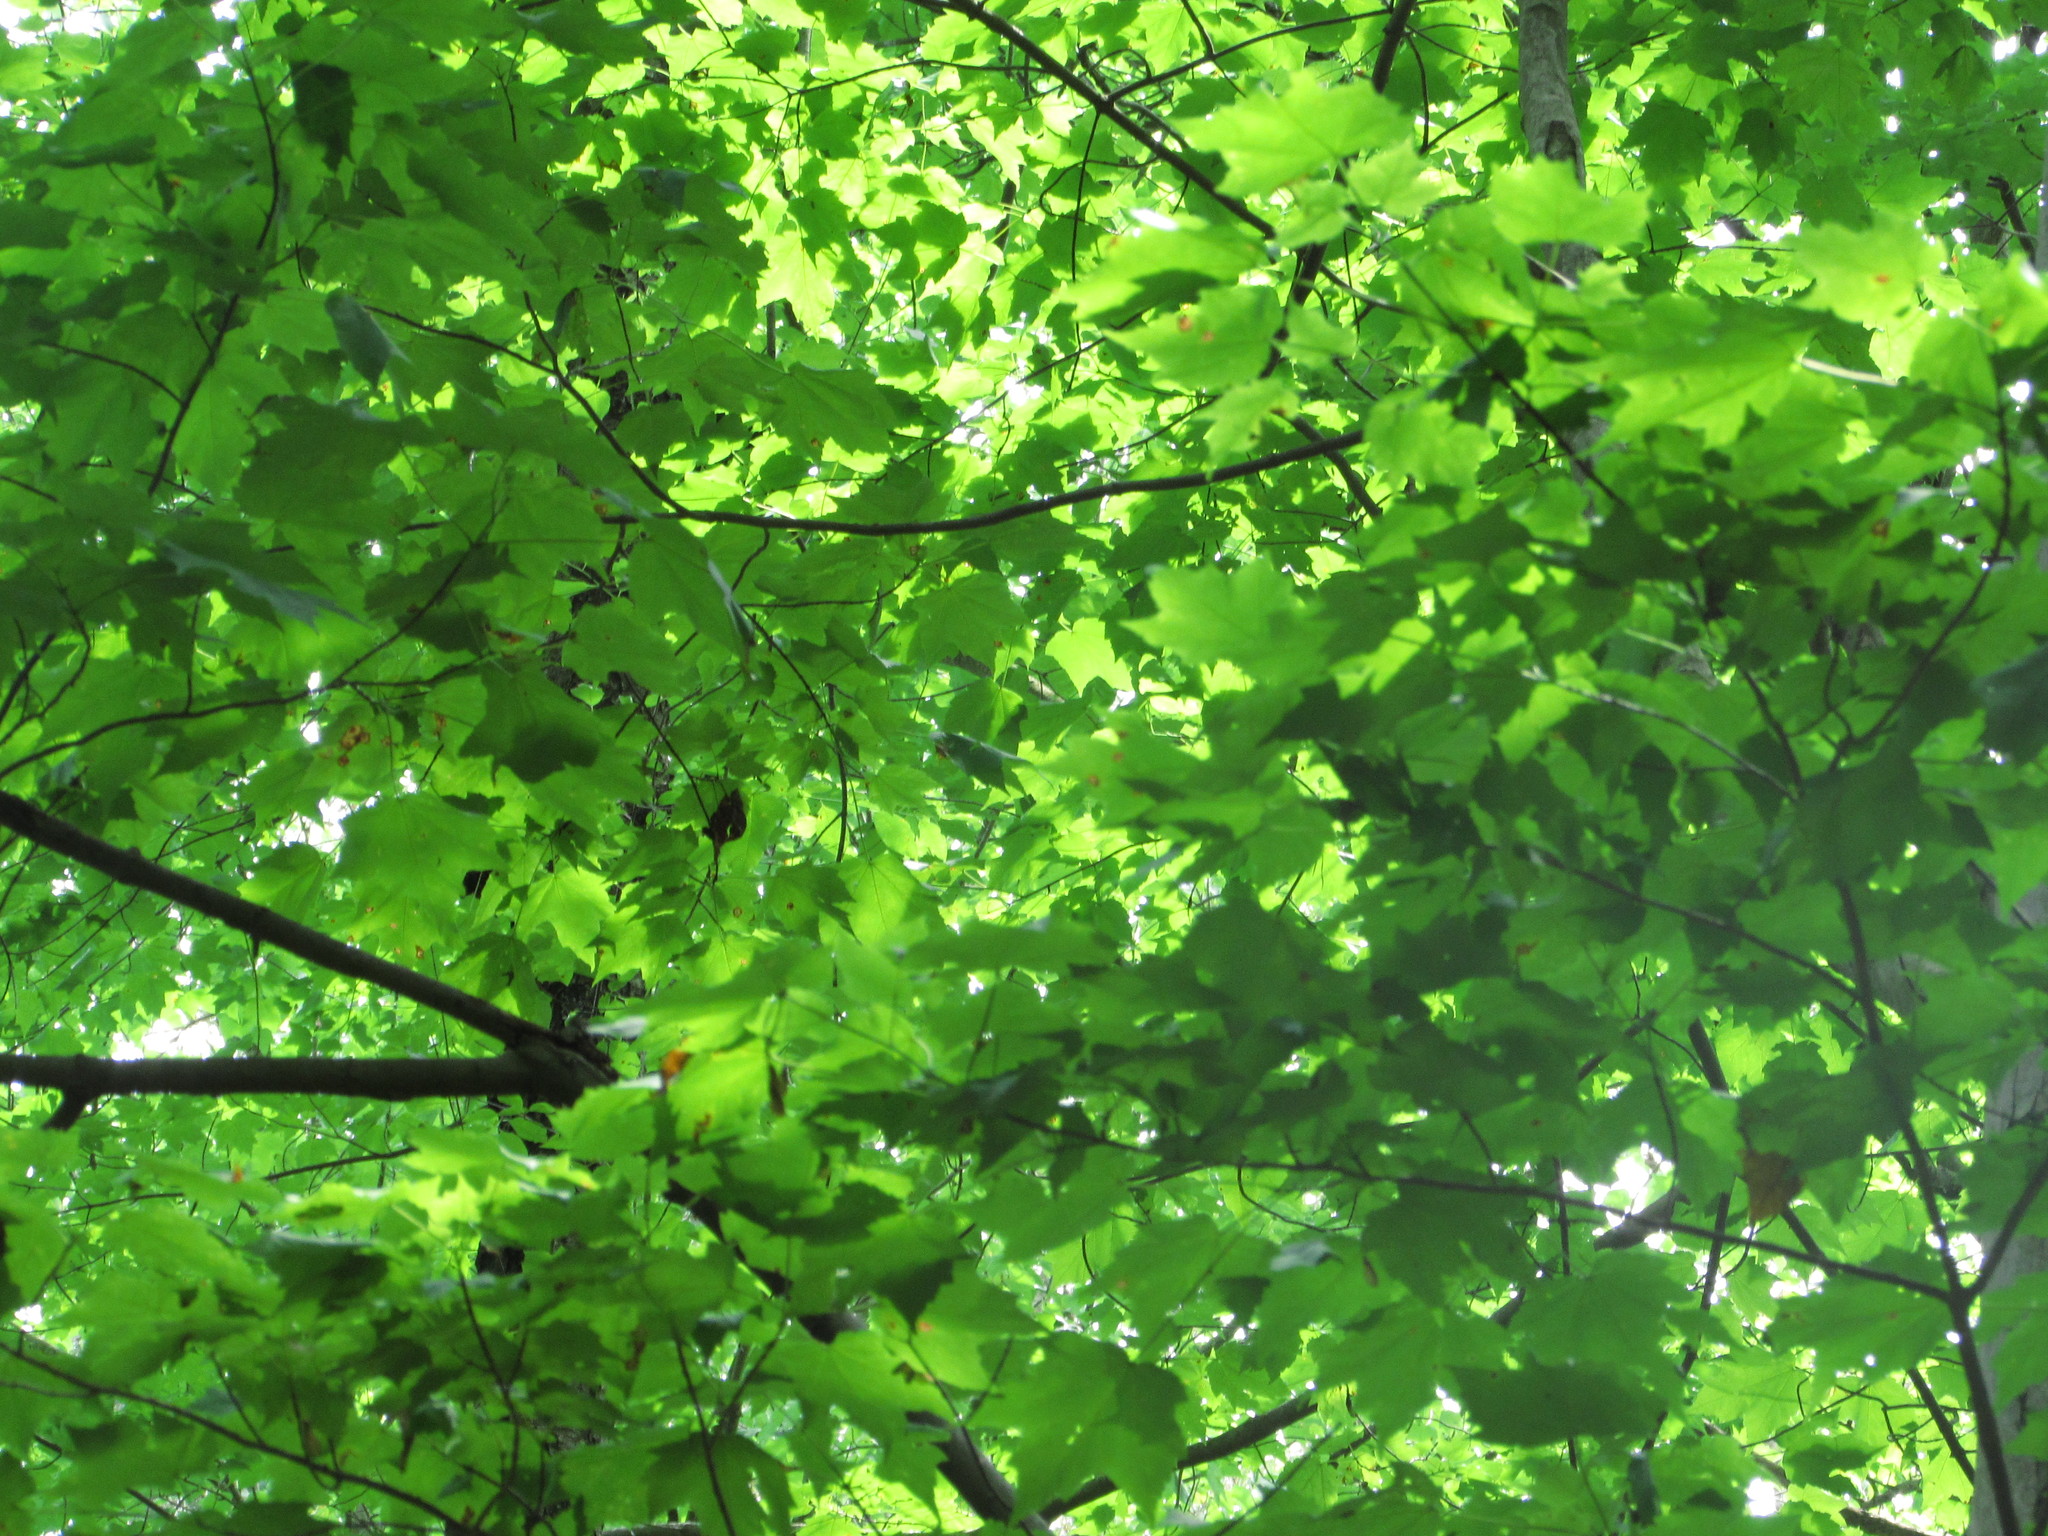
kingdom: Plantae
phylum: Tracheophyta
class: Magnoliopsida
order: Sapindales
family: Sapindaceae
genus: Acer
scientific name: Acer rubrum
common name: Red maple
